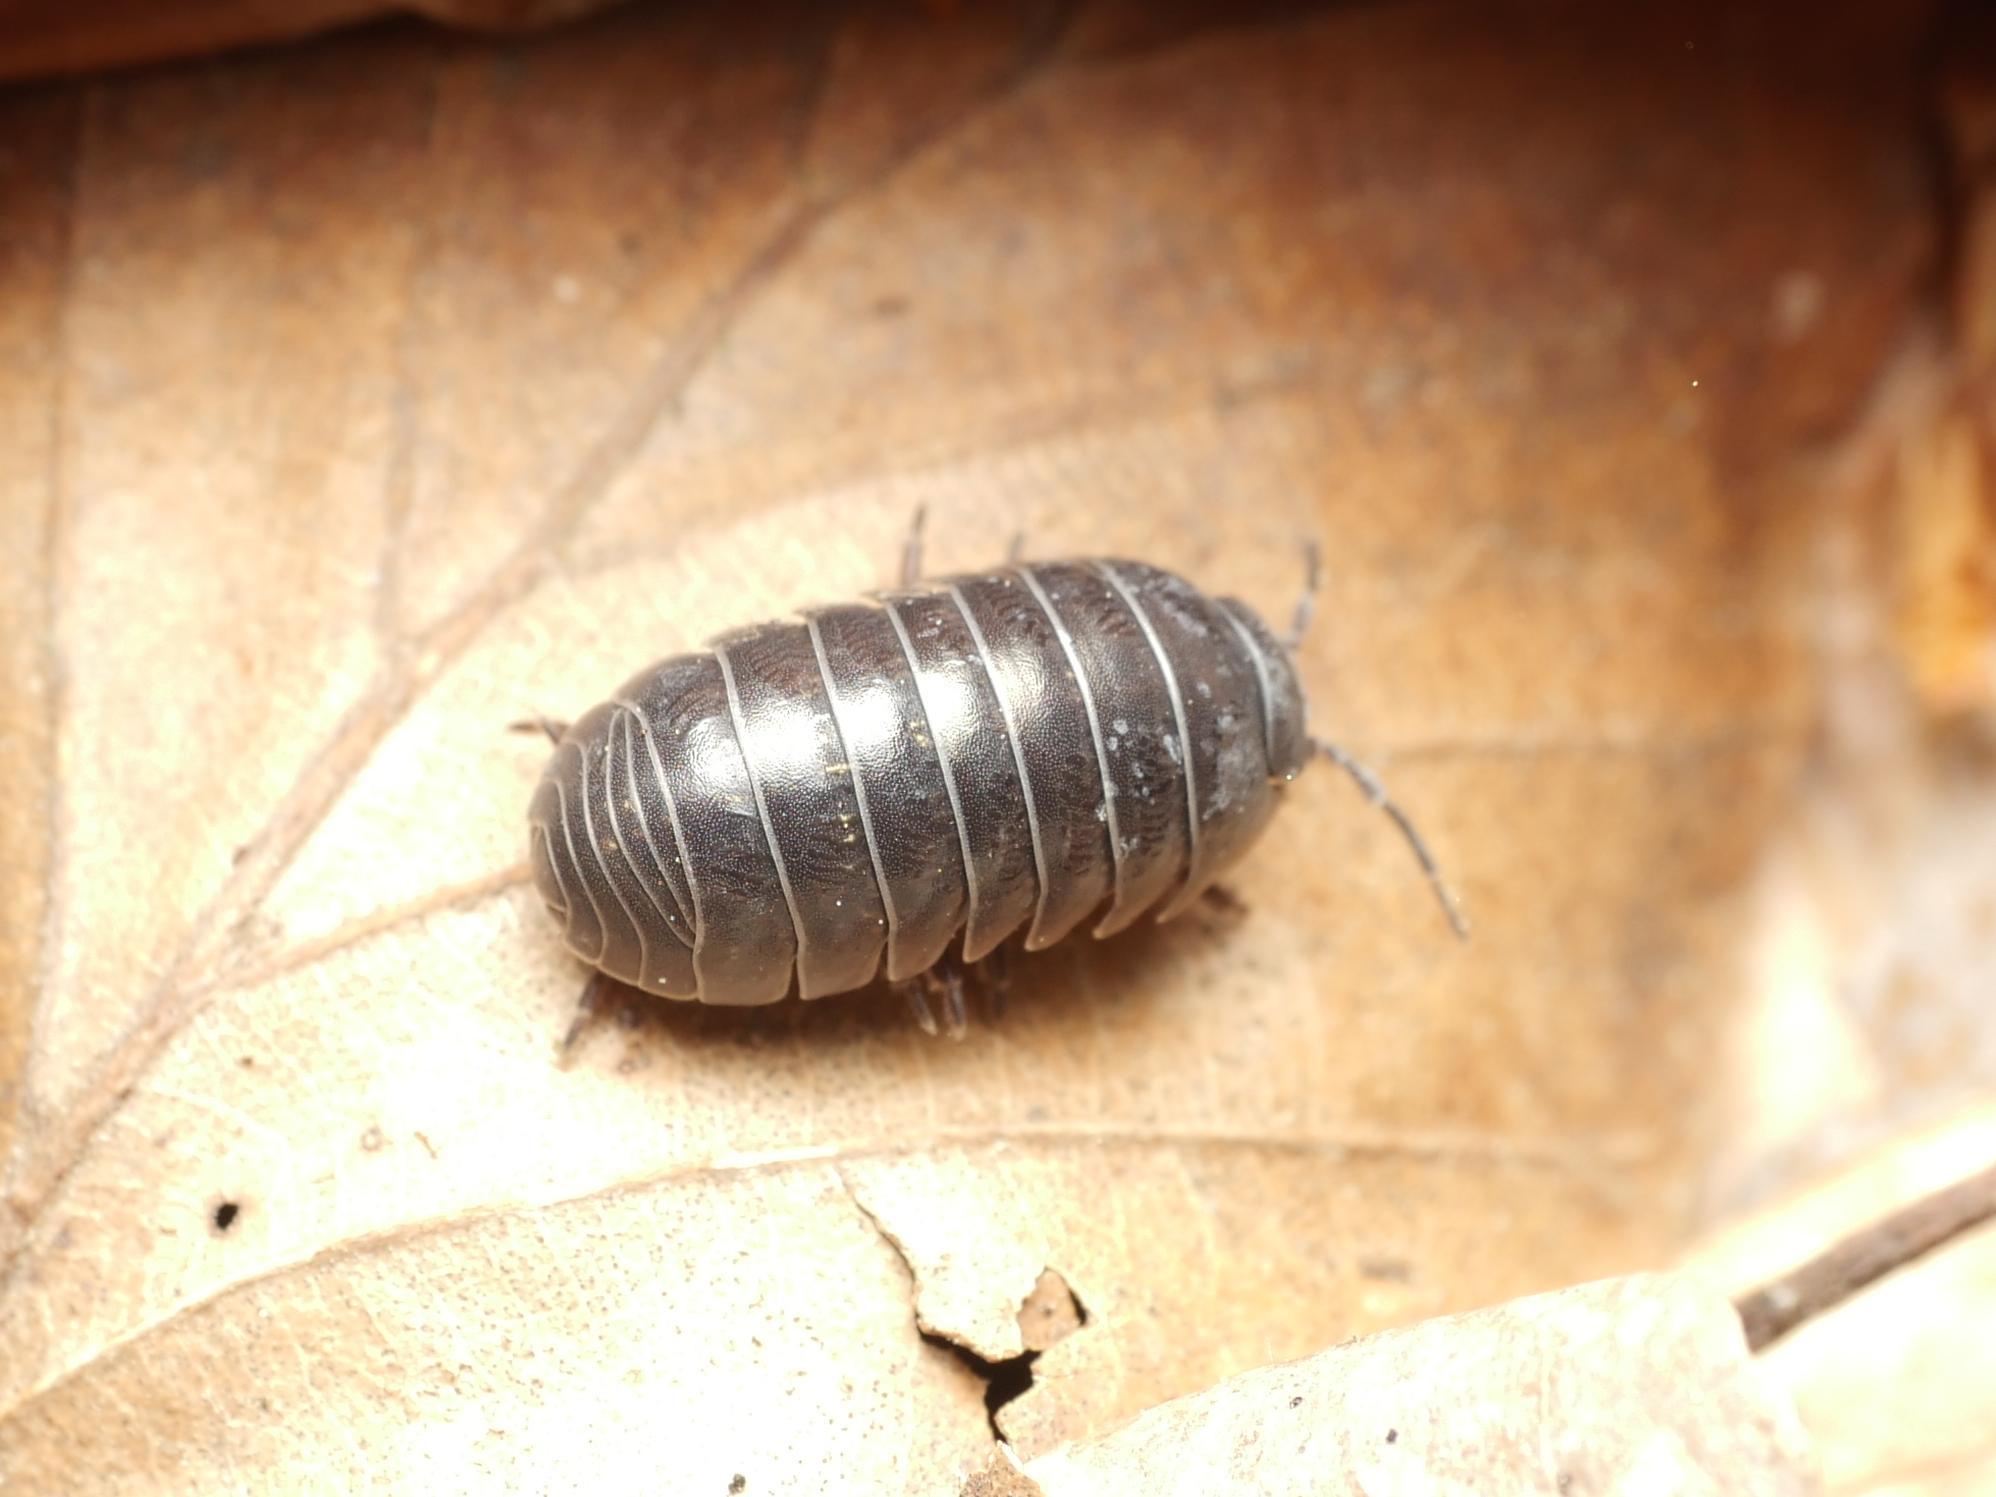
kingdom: Animalia
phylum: Arthropoda
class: Malacostraca
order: Isopoda
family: Armadillidiidae
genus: Armadillidium
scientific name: Armadillidium vulgare
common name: Common pill woodlouse
